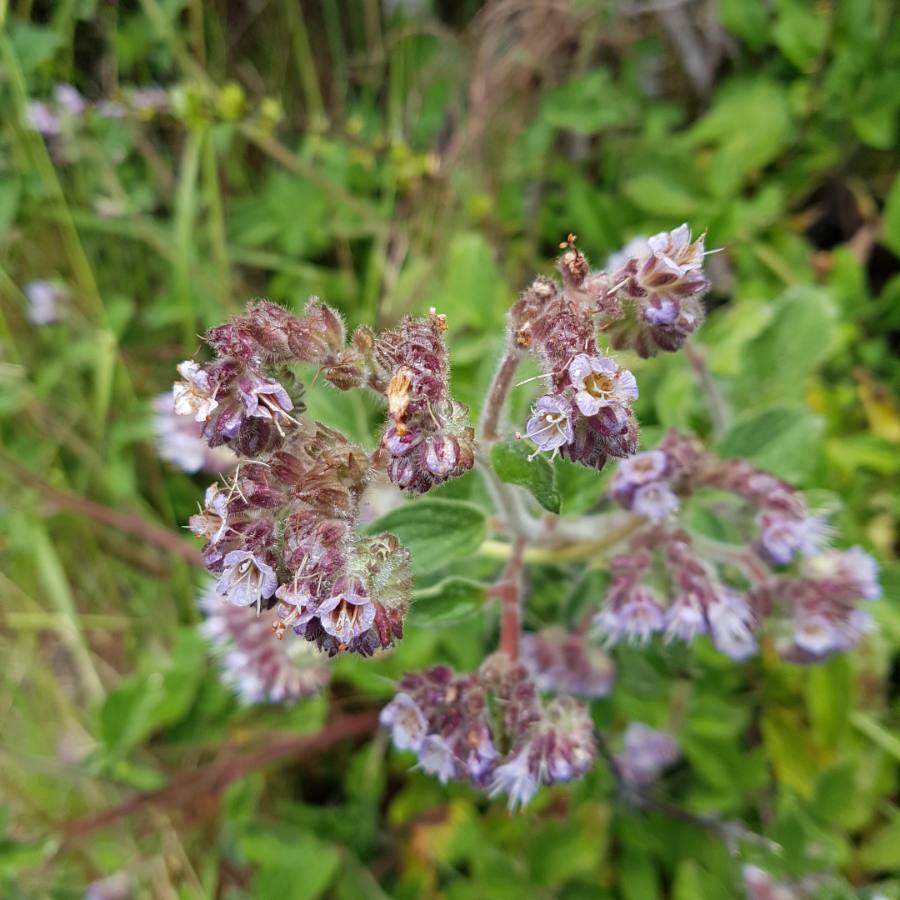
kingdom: Plantae
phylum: Tracheophyta
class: Magnoliopsida
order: Boraginales
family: Hydrophyllaceae
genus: Phacelia
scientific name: Phacelia secunda
